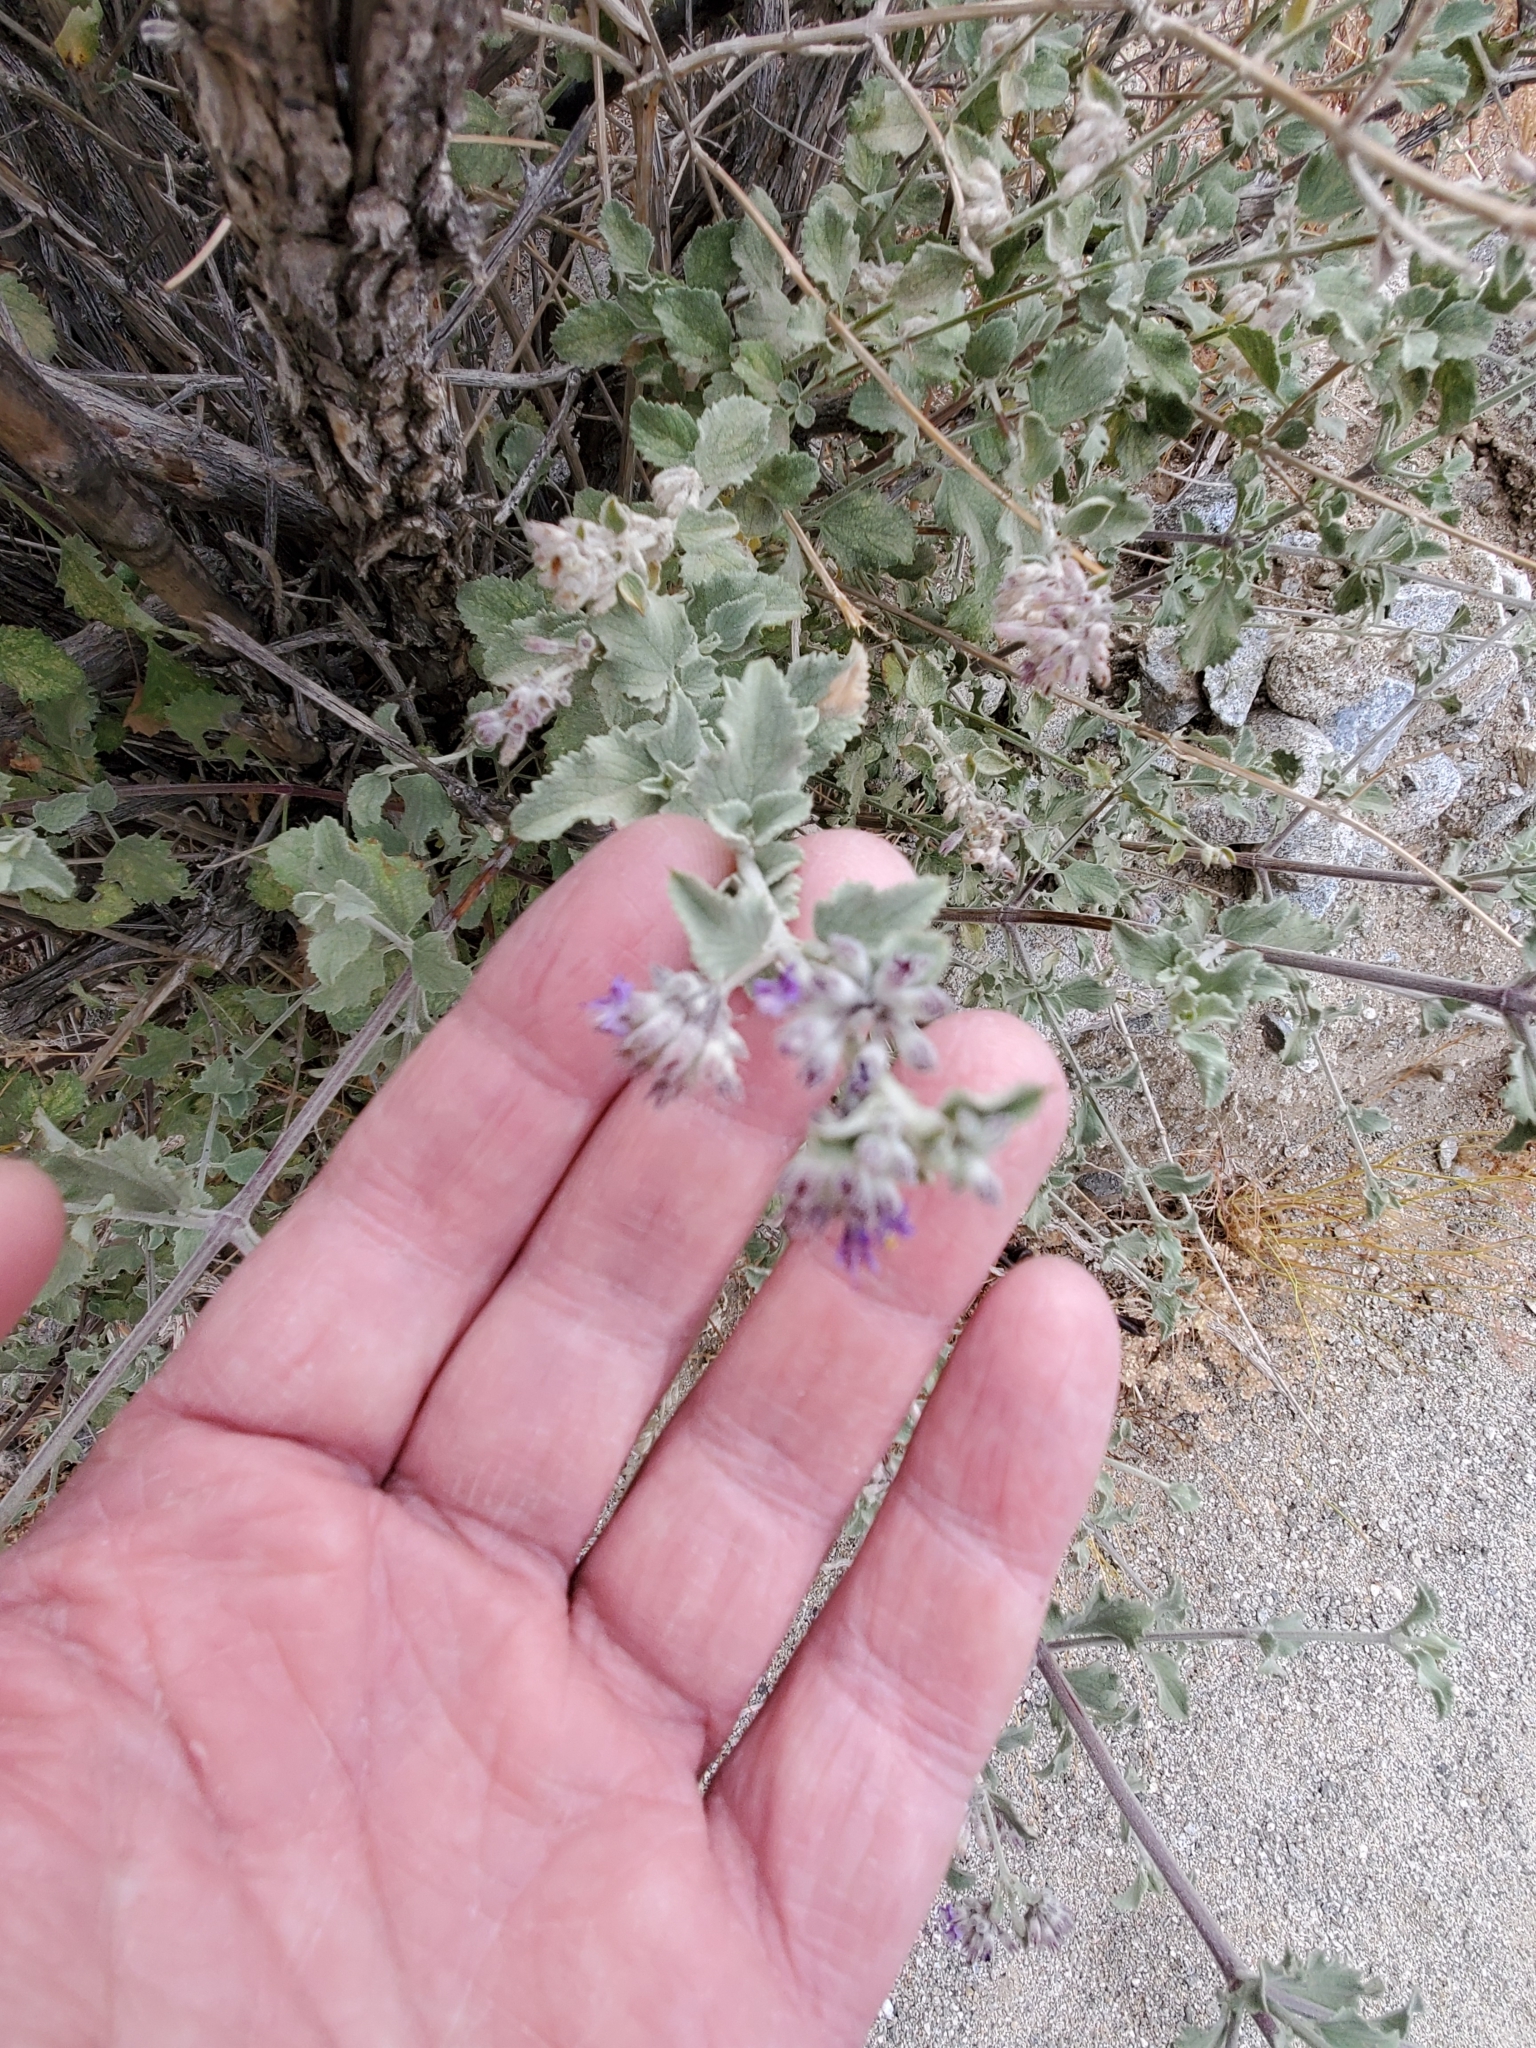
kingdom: Plantae
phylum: Tracheophyta
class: Magnoliopsida
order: Lamiales
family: Lamiaceae
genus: Condea
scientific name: Condea emoryi
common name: Chia
